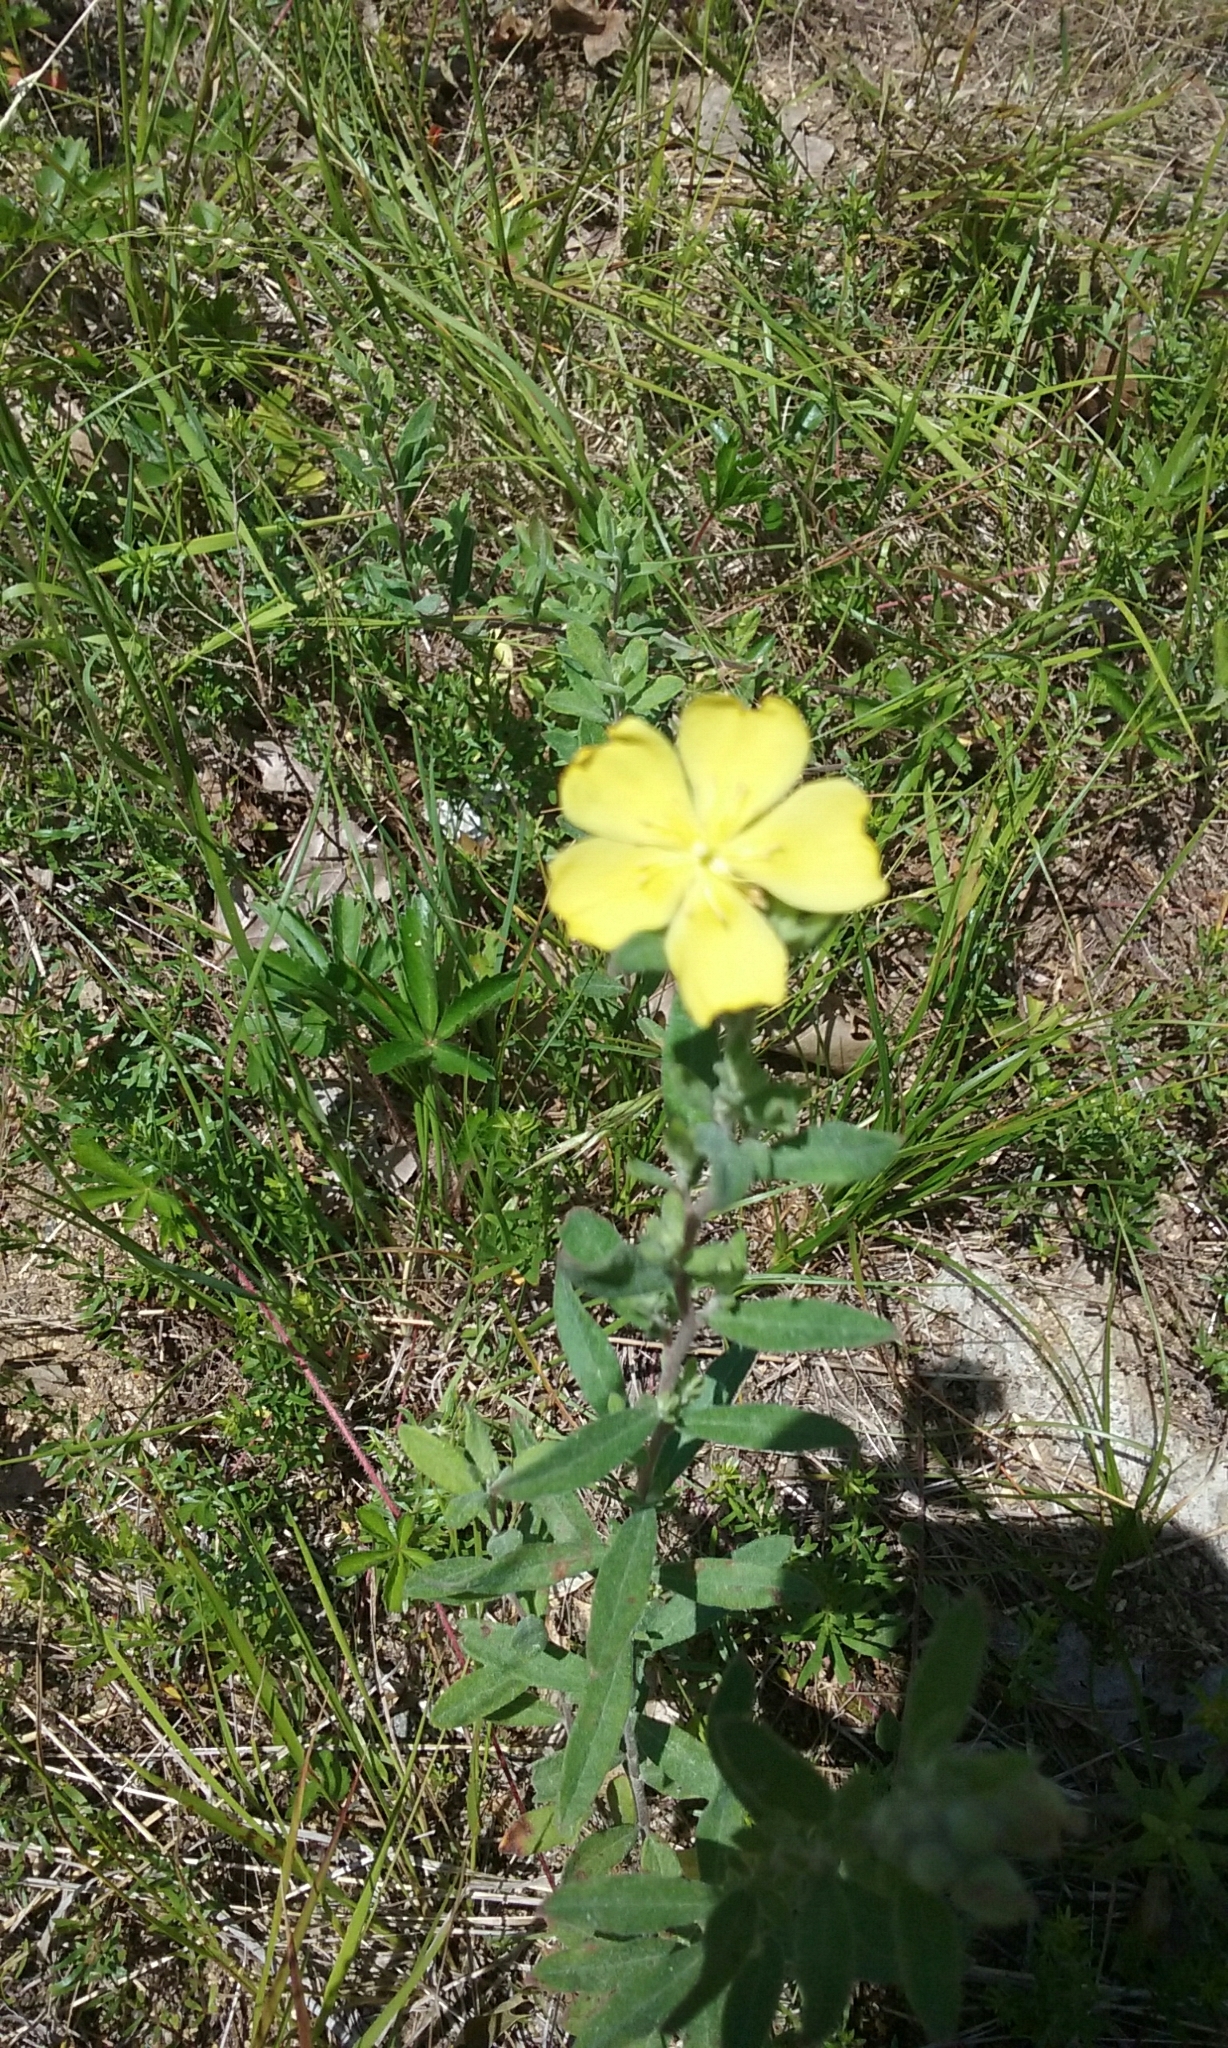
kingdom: Plantae
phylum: Tracheophyta
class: Magnoliopsida
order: Malvales
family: Cistaceae
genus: Crocanthemum
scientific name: Crocanthemum canadense
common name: Canada frostweed
